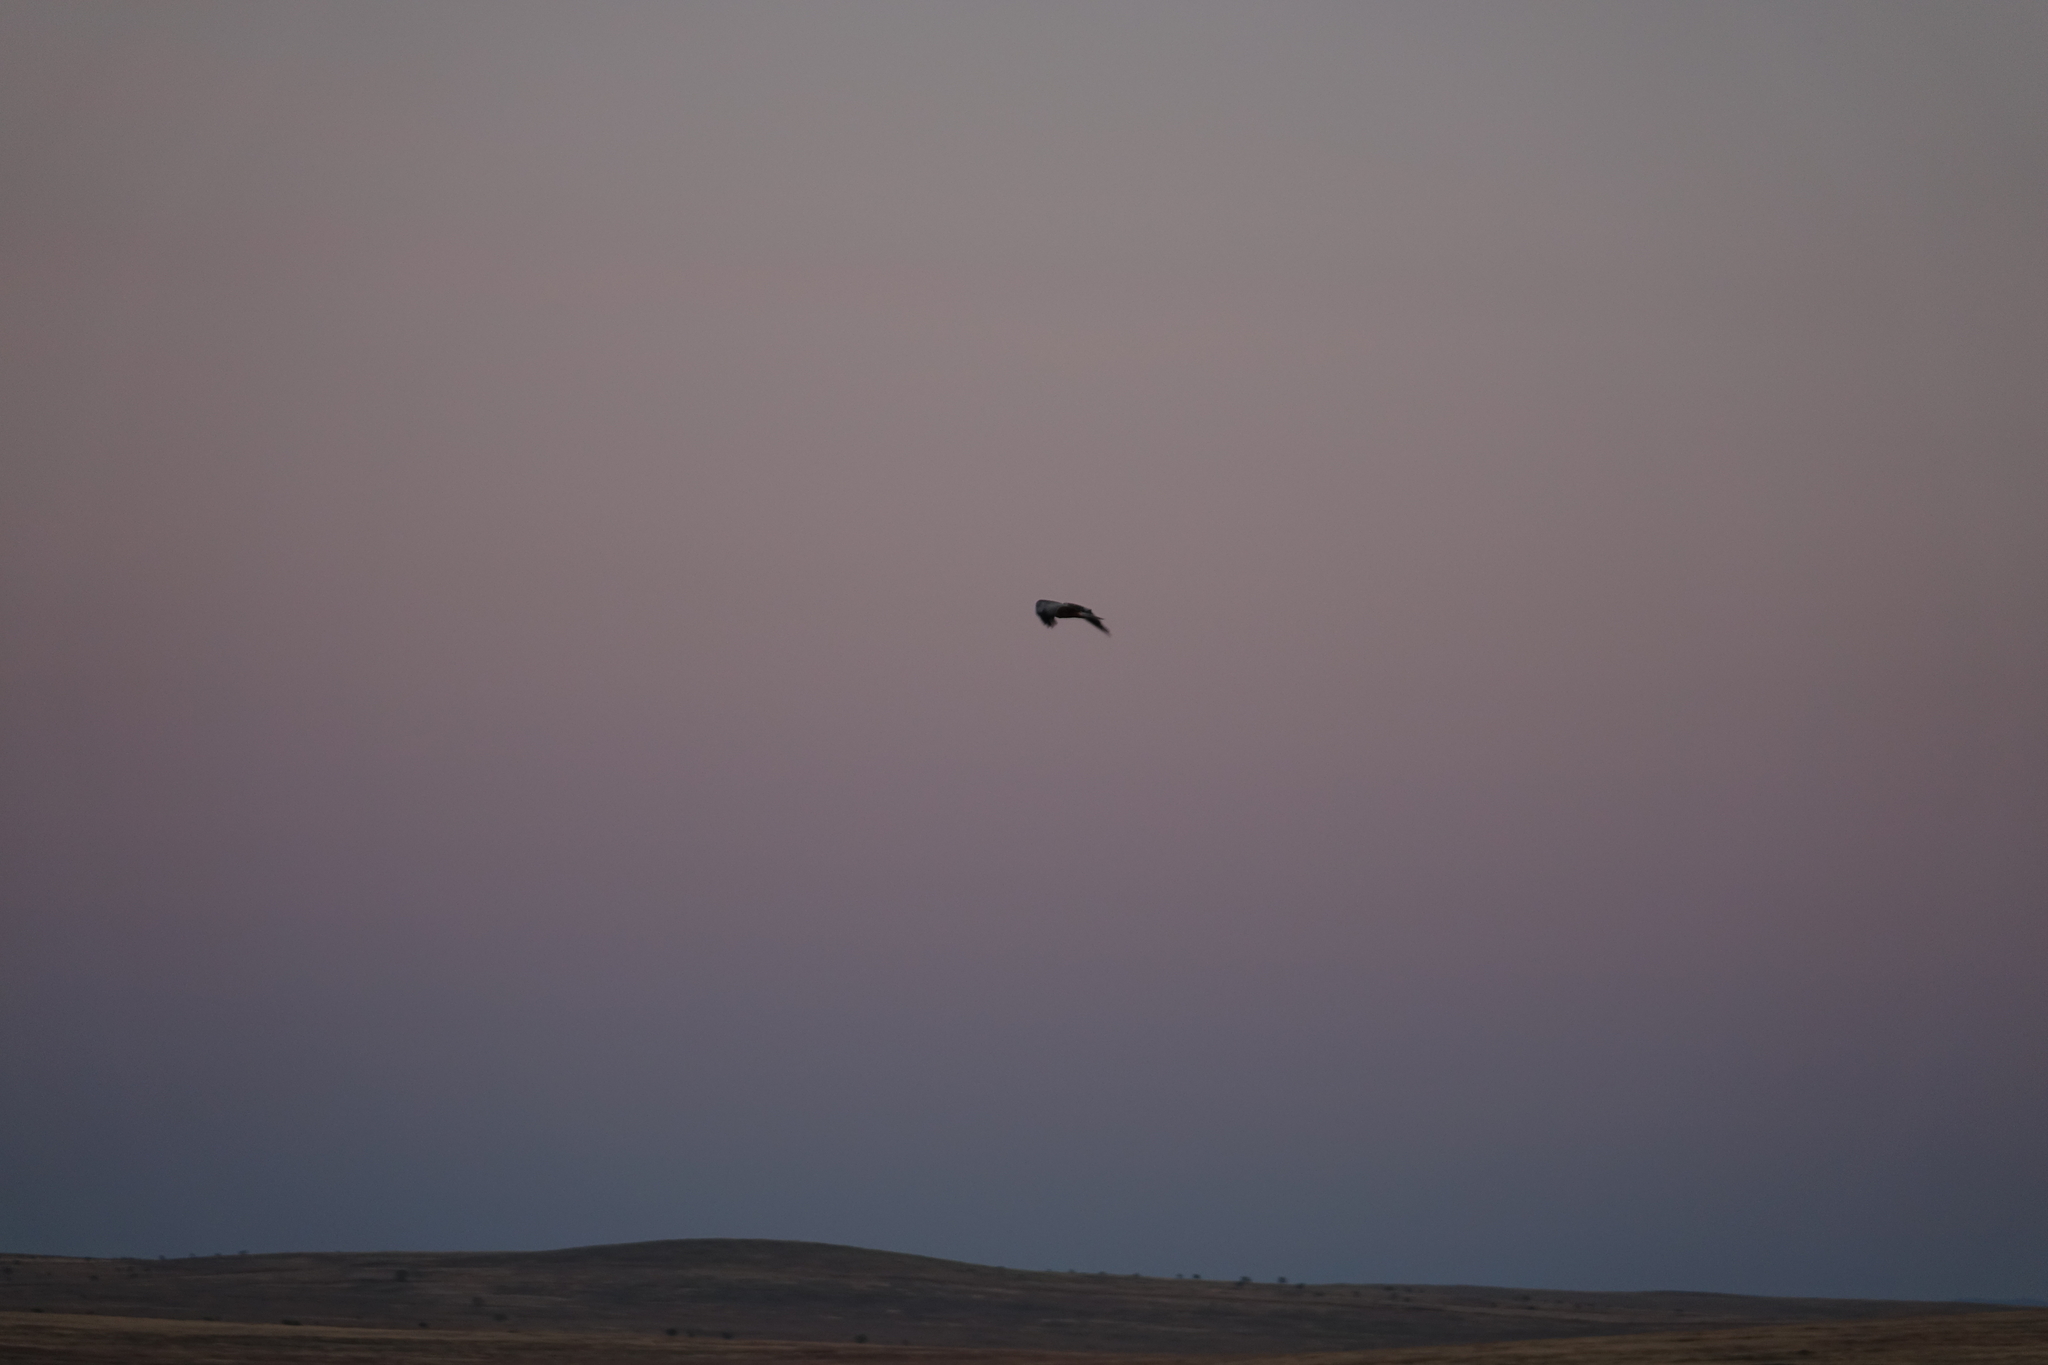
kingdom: Animalia
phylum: Chordata
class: Aves
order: Accipitriformes
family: Accipitridae
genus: Circus
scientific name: Circus aeruginosus
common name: Western marsh harrier
